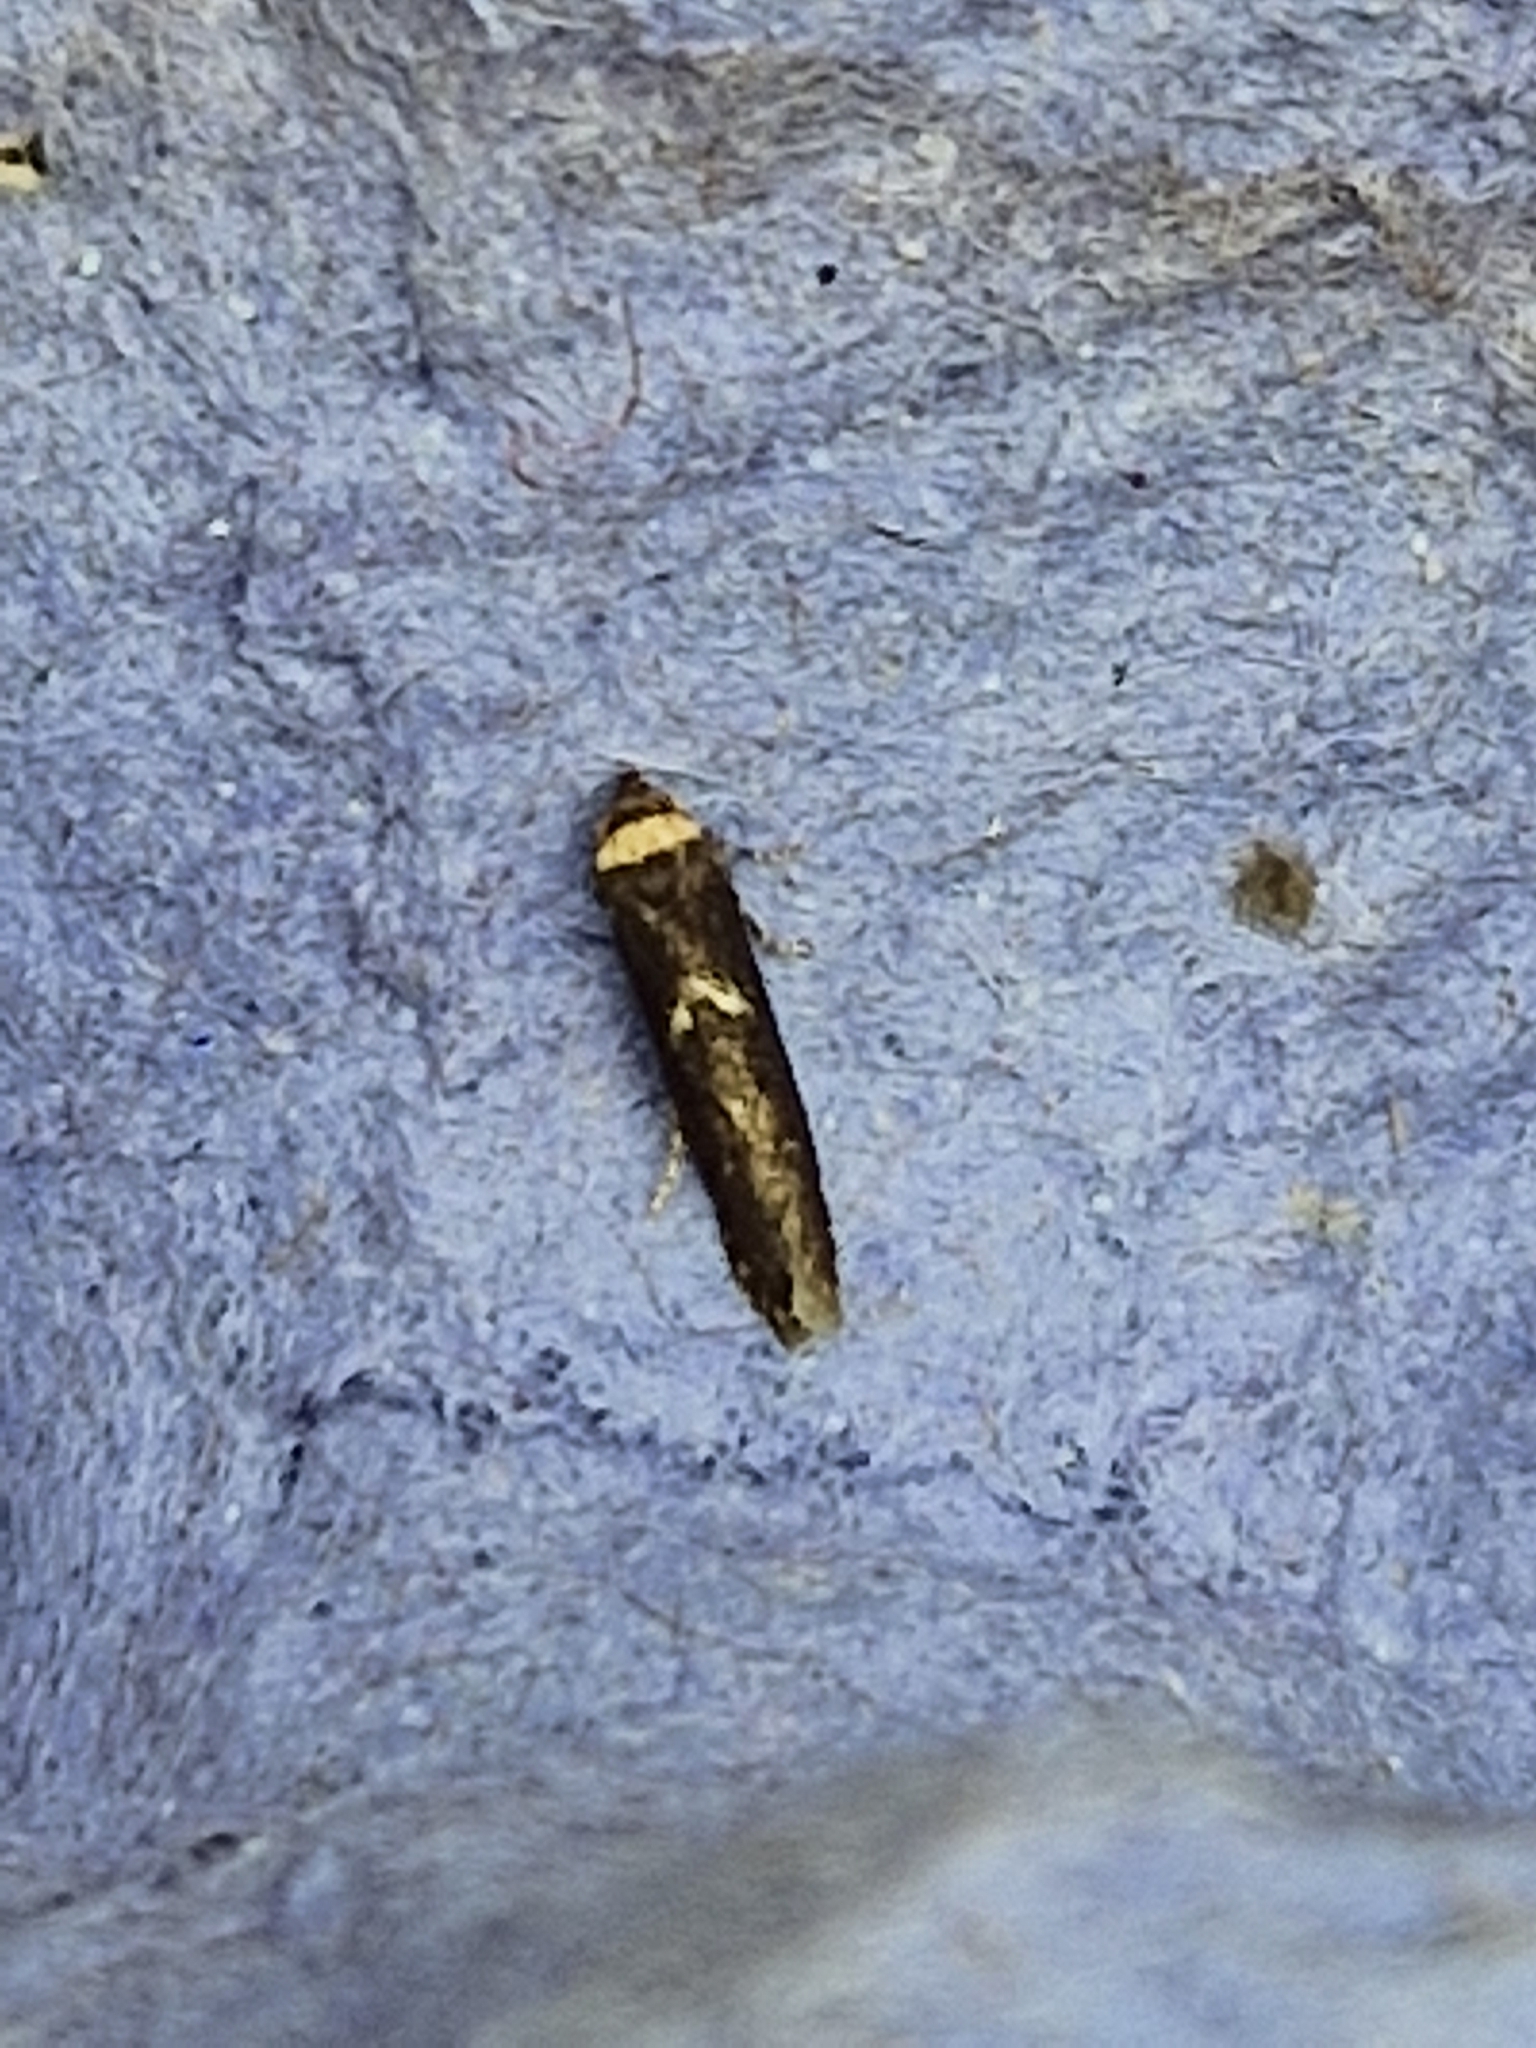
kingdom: Animalia
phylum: Arthropoda
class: Insecta
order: Lepidoptera
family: Blastobasidae
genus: Blastobasis
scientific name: Blastobasis adustella
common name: Dingy dowd
